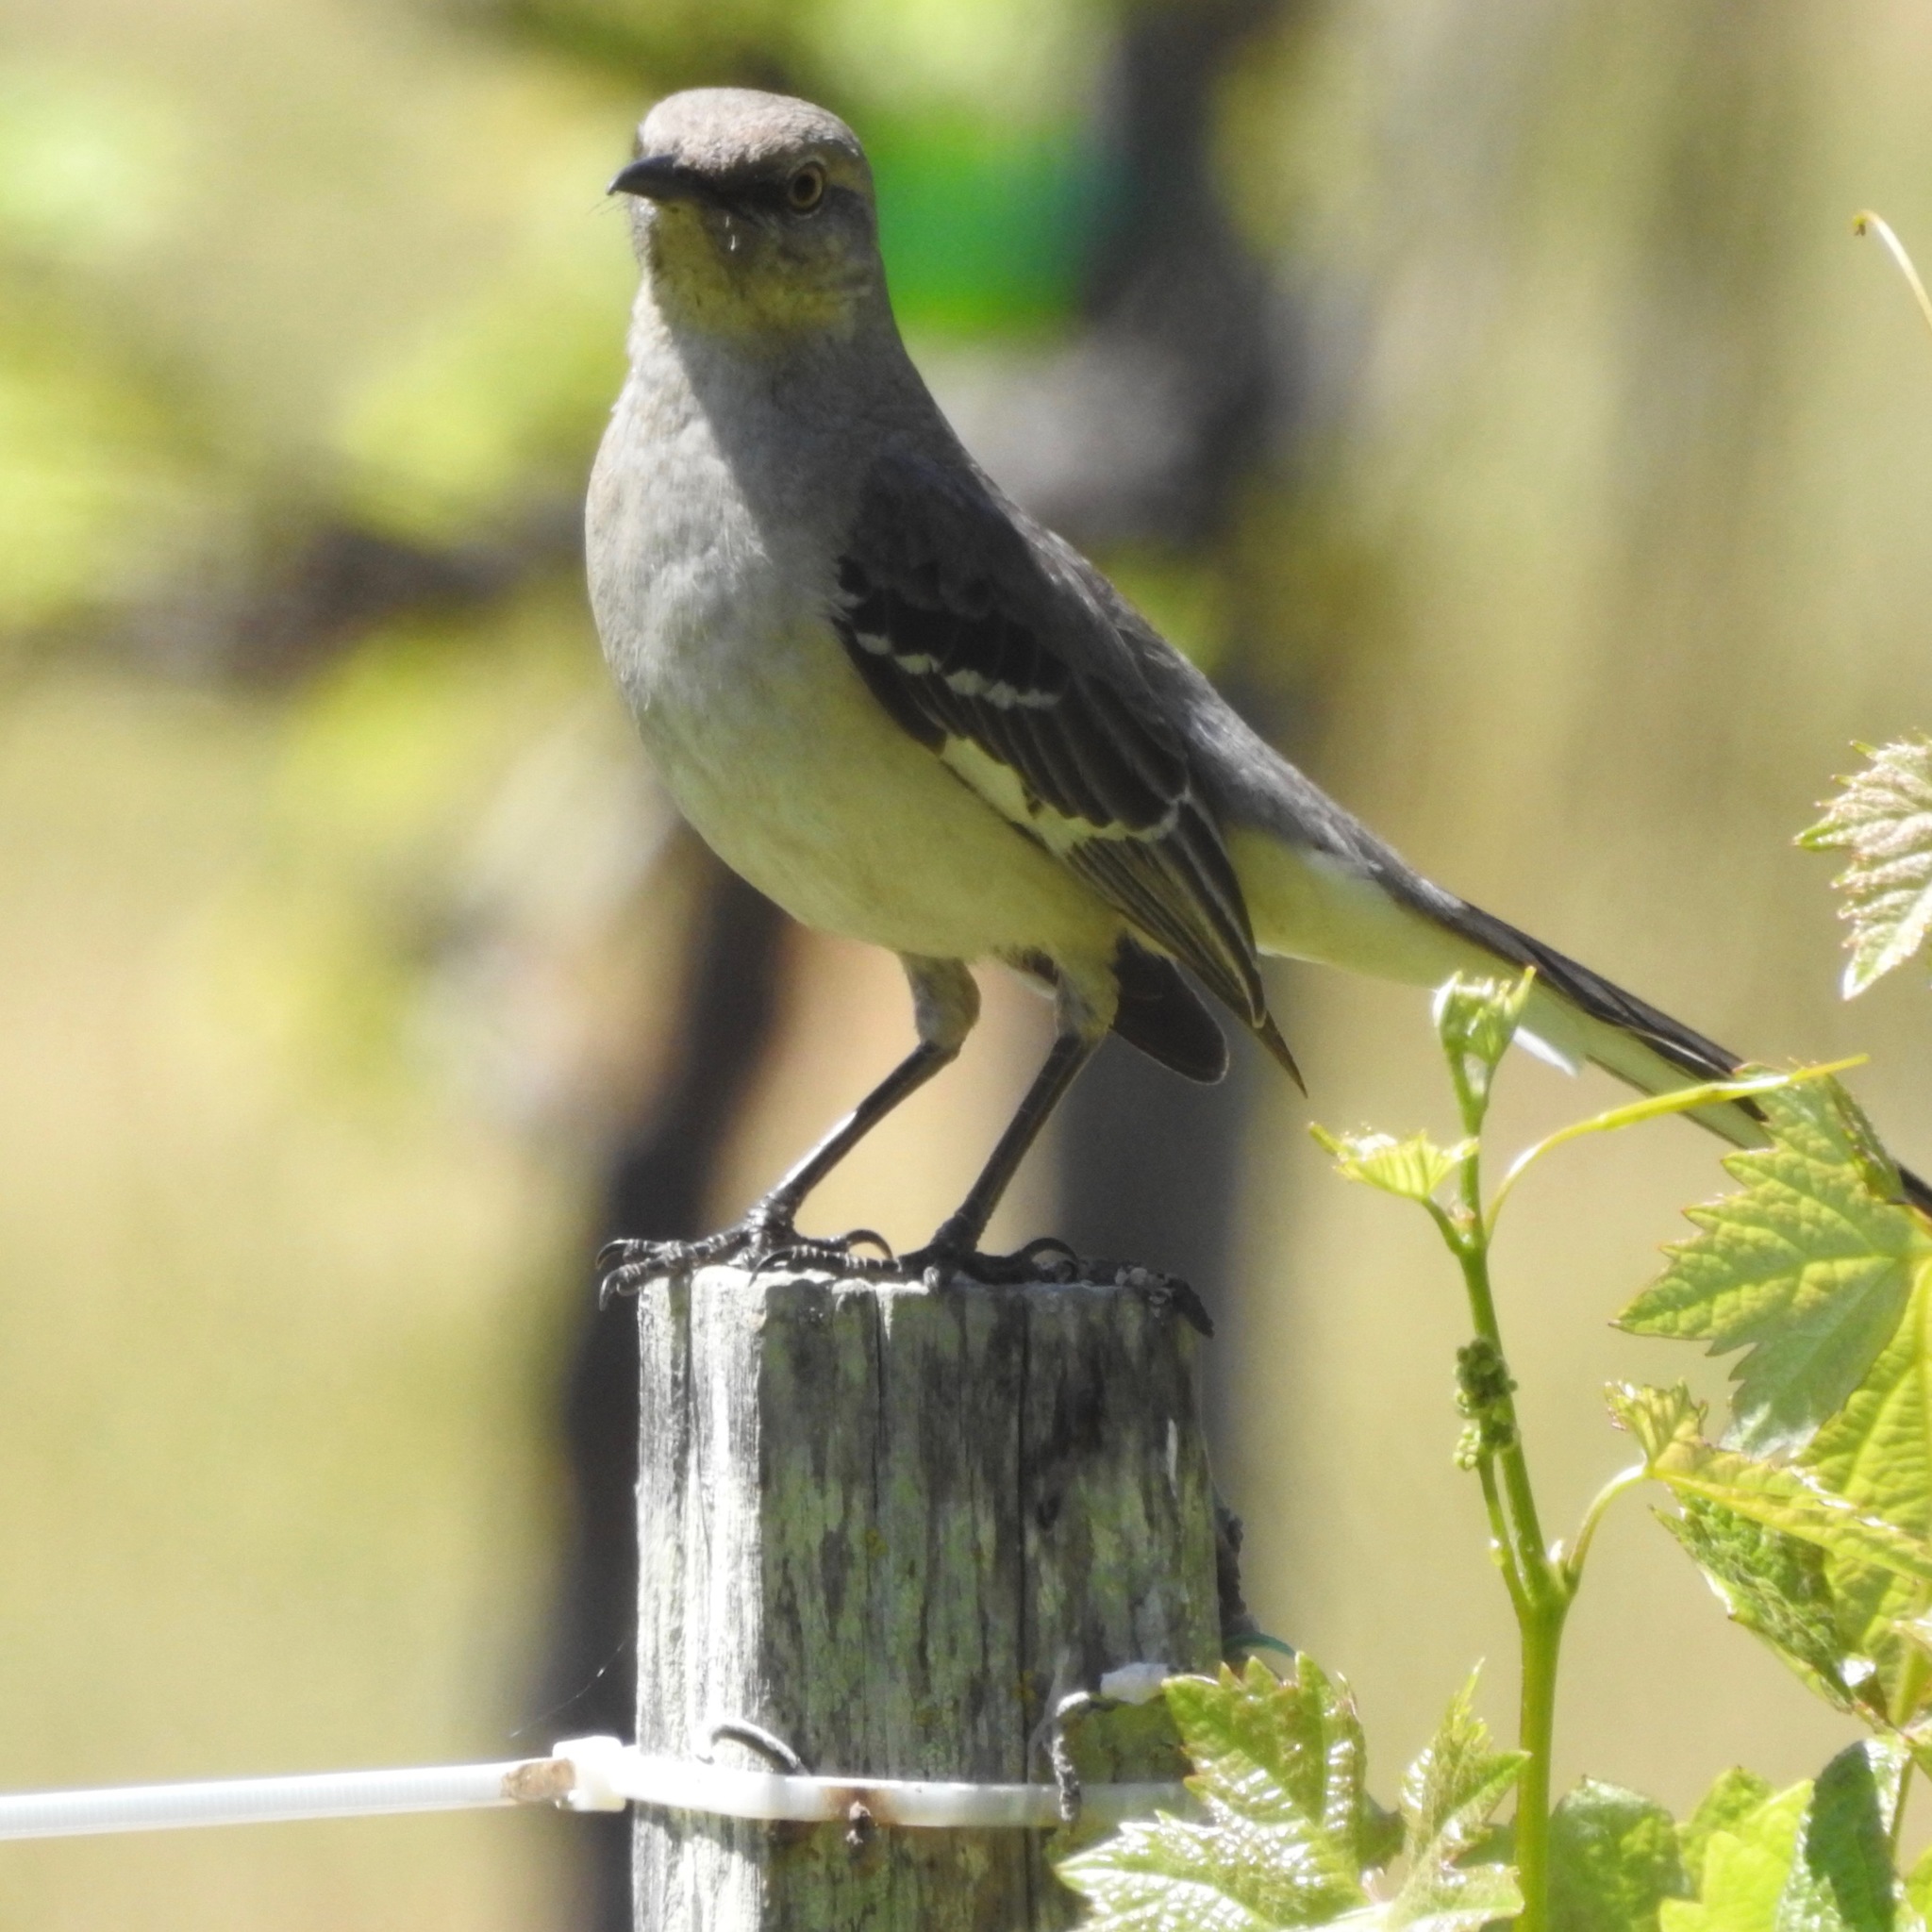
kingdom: Animalia
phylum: Chordata
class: Aves
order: Passeriformes
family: Mimidae
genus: Mimus
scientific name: Mimus polyglottos
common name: Northern mockingbird
